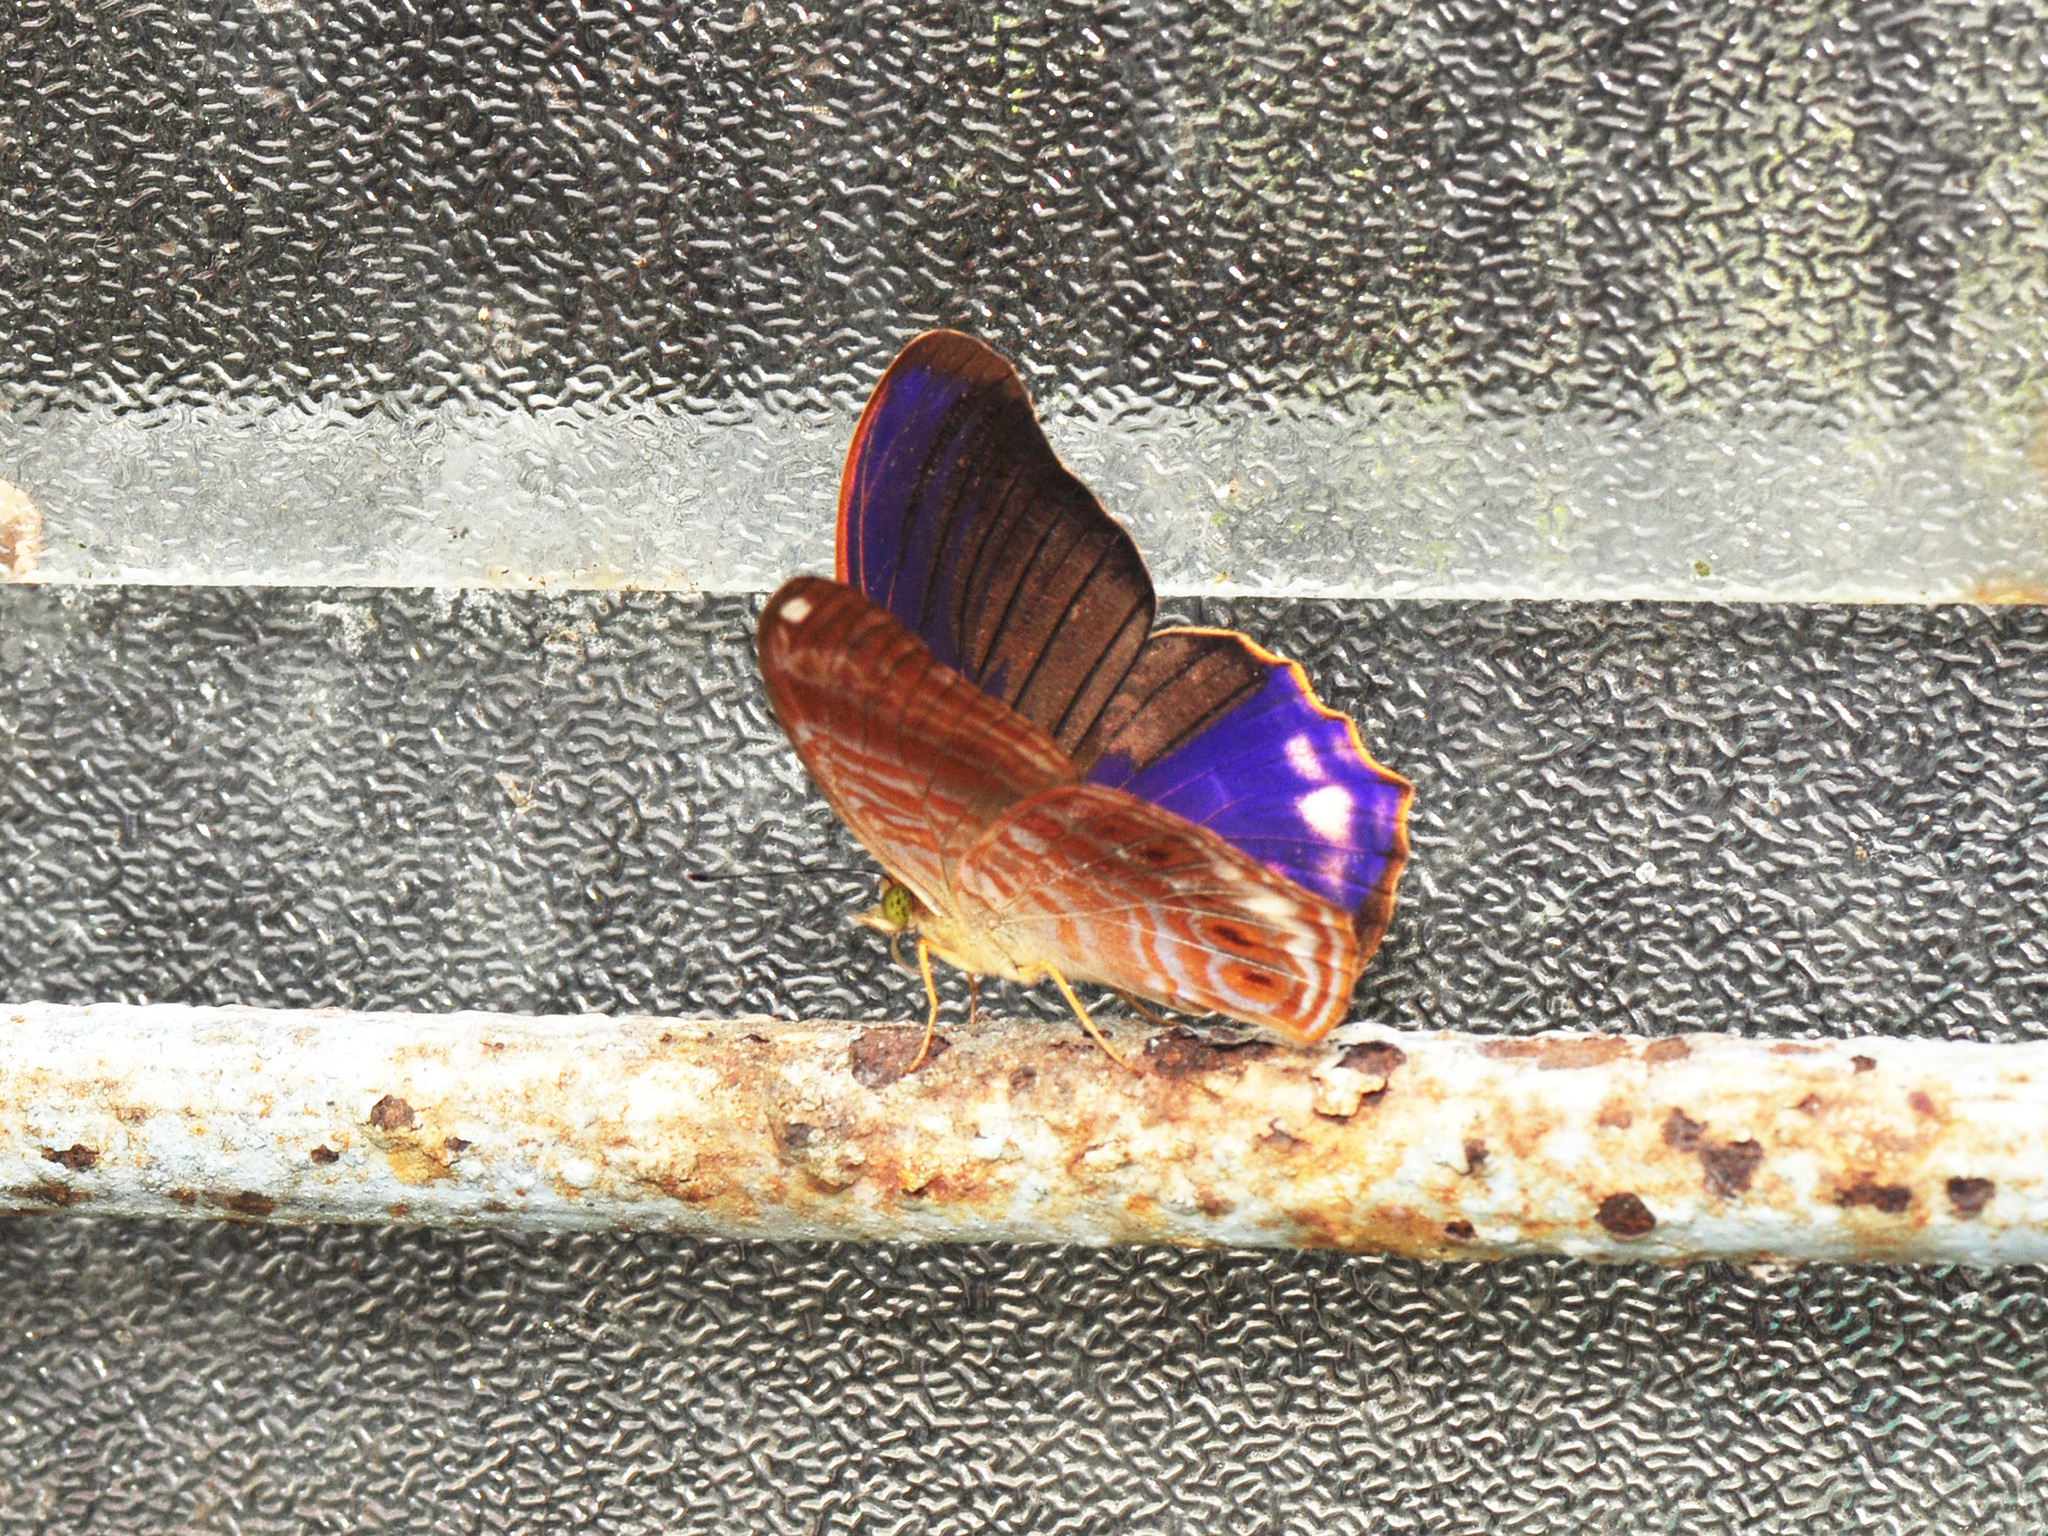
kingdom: Animalia
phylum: Arthropoda
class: Insecta
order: Lepidoptera
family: Nymphalidae
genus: Terinos
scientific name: Terinos terpander
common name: Royal assyrian
